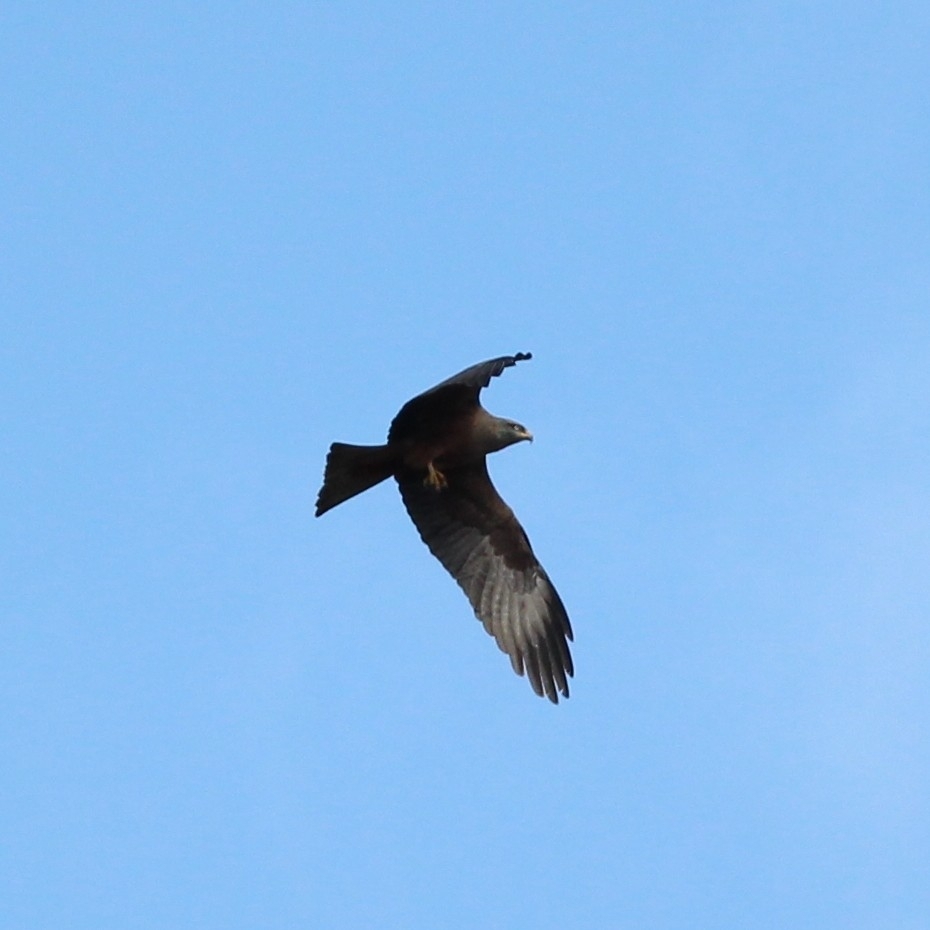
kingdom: Animalia
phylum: Chordata
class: Aves
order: Accipitriformes
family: Accipitridae
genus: Milvus
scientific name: Milvus migrans
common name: Black kite
